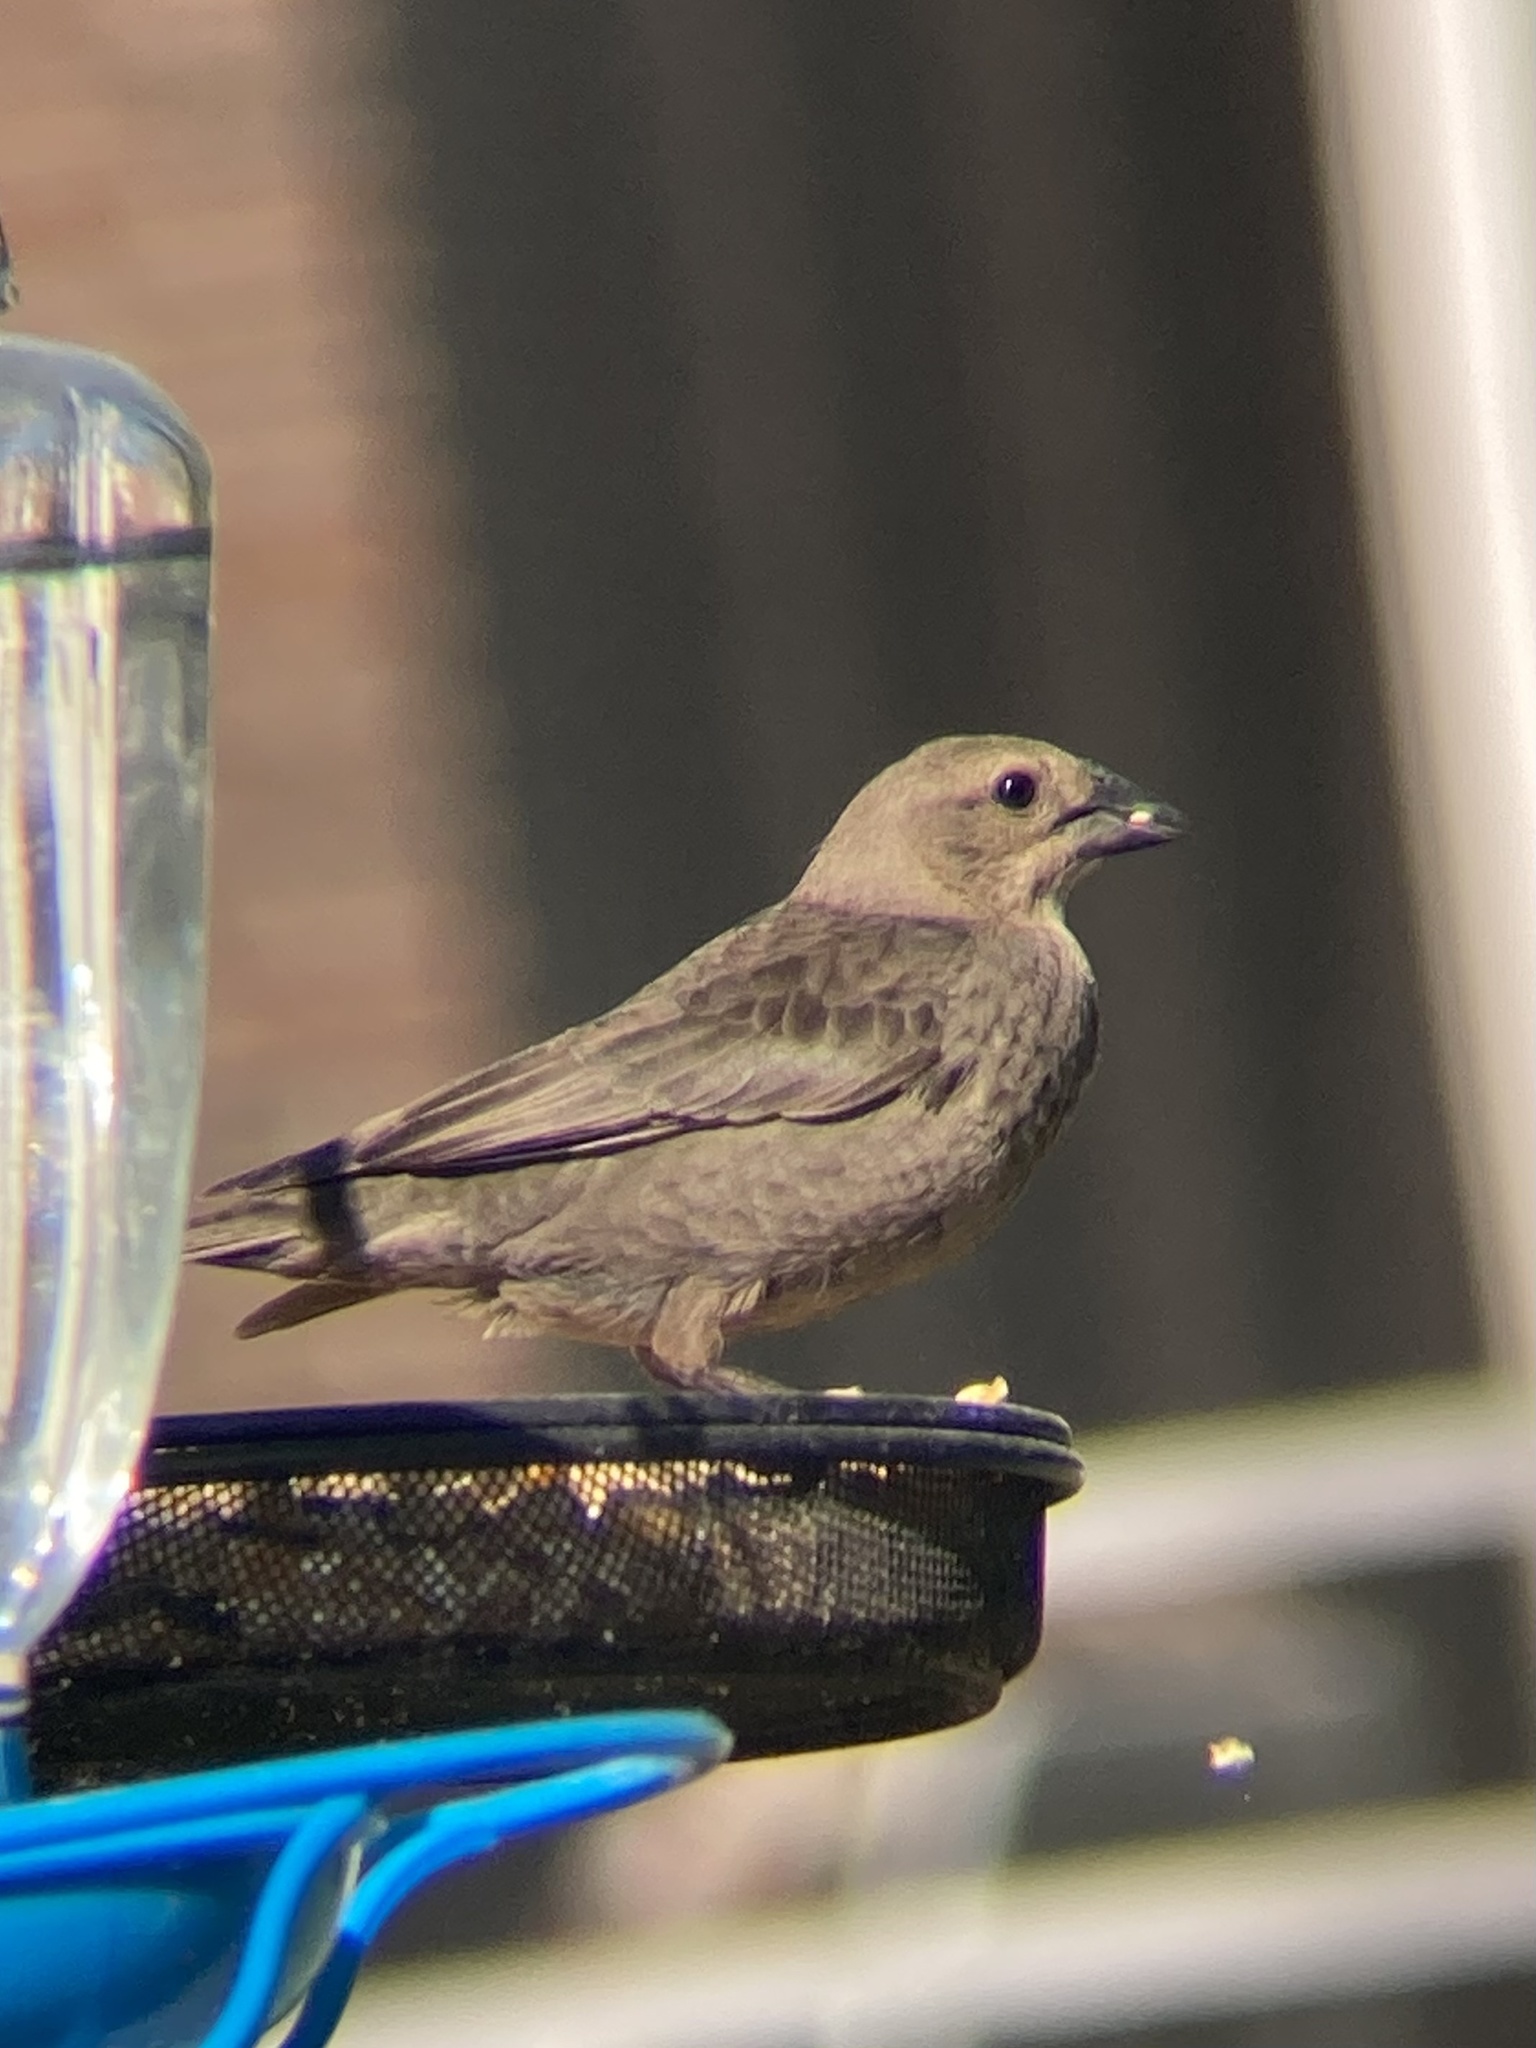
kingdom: Animalia
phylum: Chordata
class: Aves
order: Passeriformes
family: Icteridae
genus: Molothrus
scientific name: Molothrus ater
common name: Brown-headed cowbird
